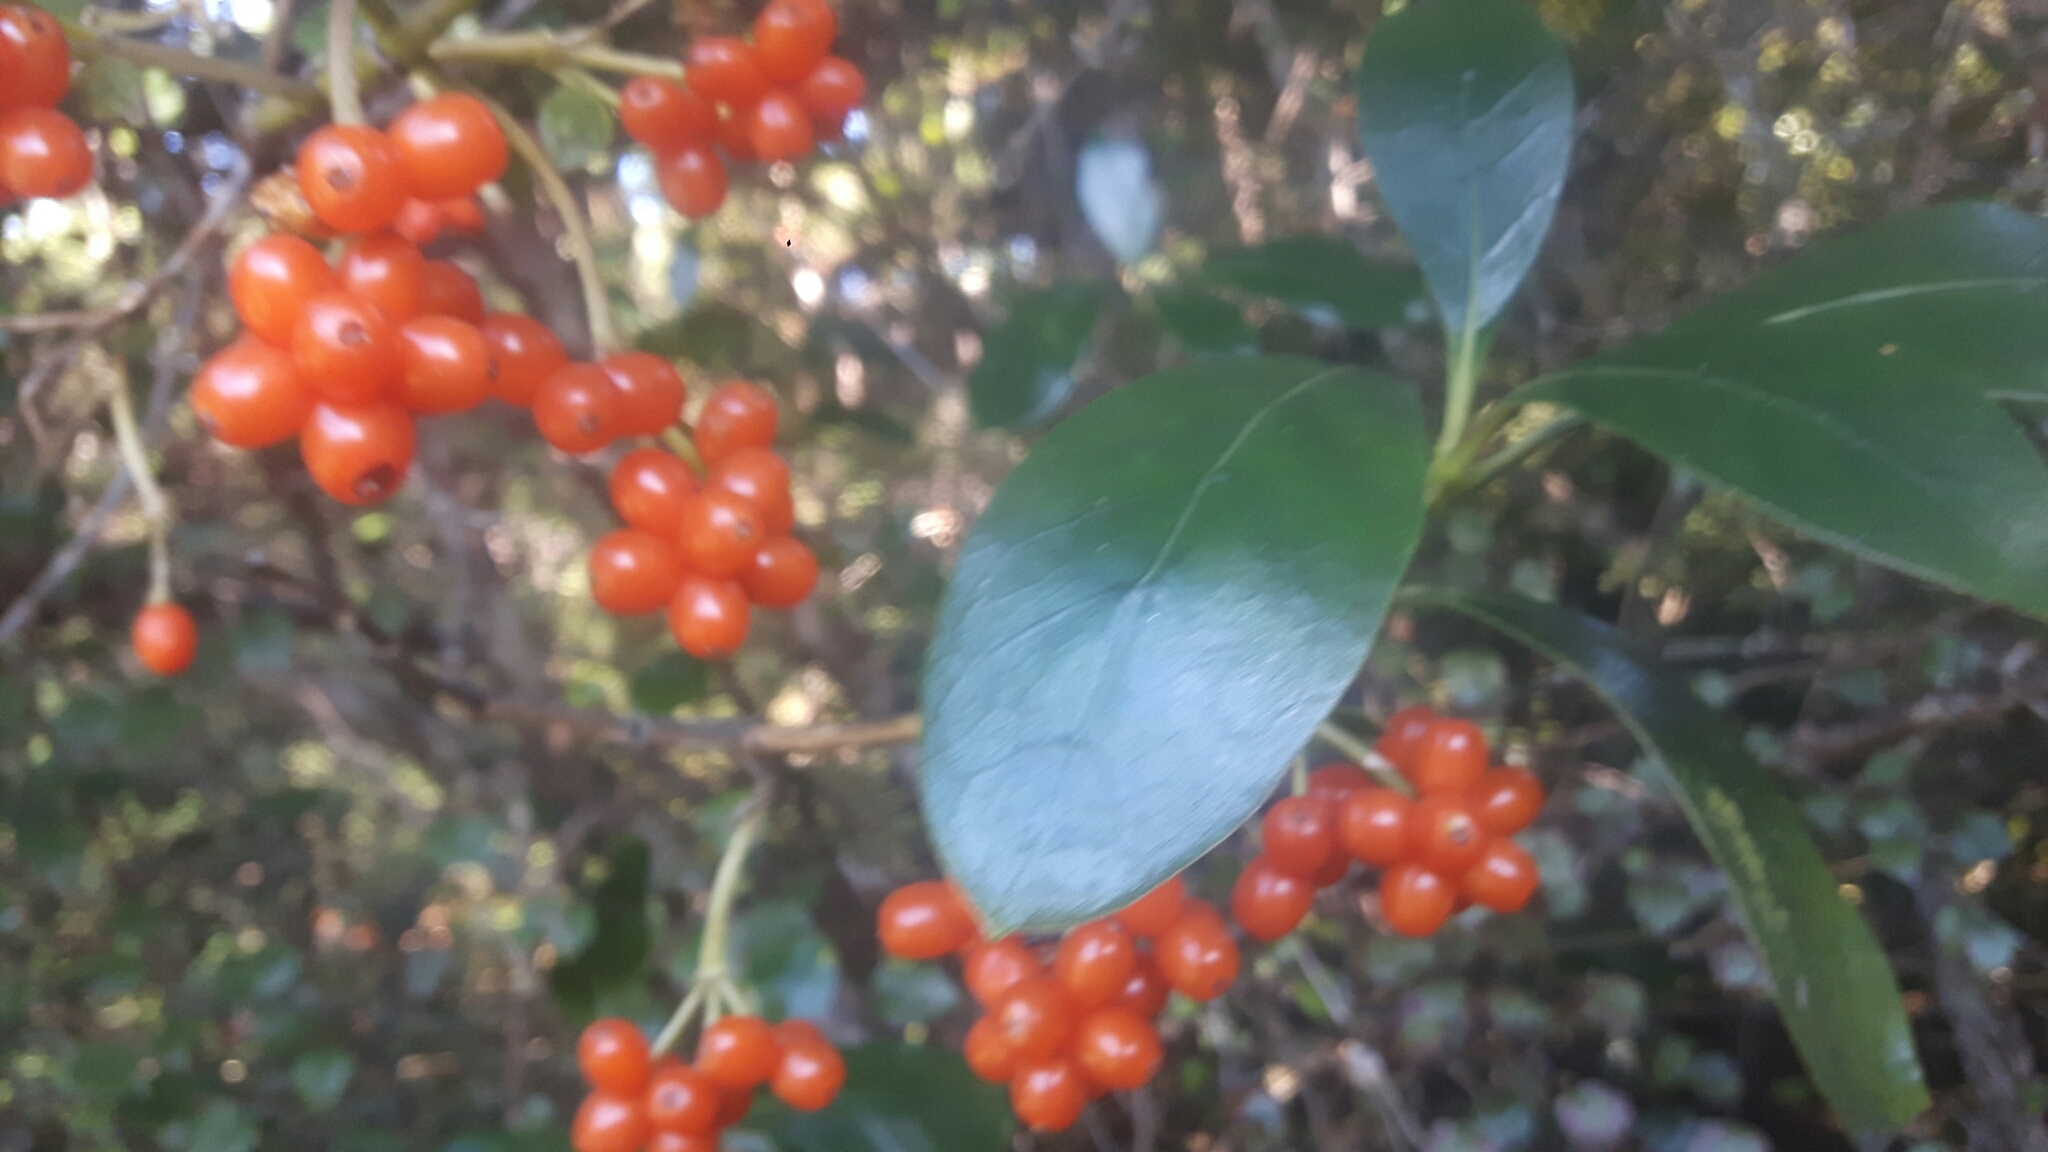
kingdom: Plantae
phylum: Tracheophyta
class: Magnoliopsida
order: Gentianales
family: Rubiaceae
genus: Coprosma
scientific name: Coprosma lucida
